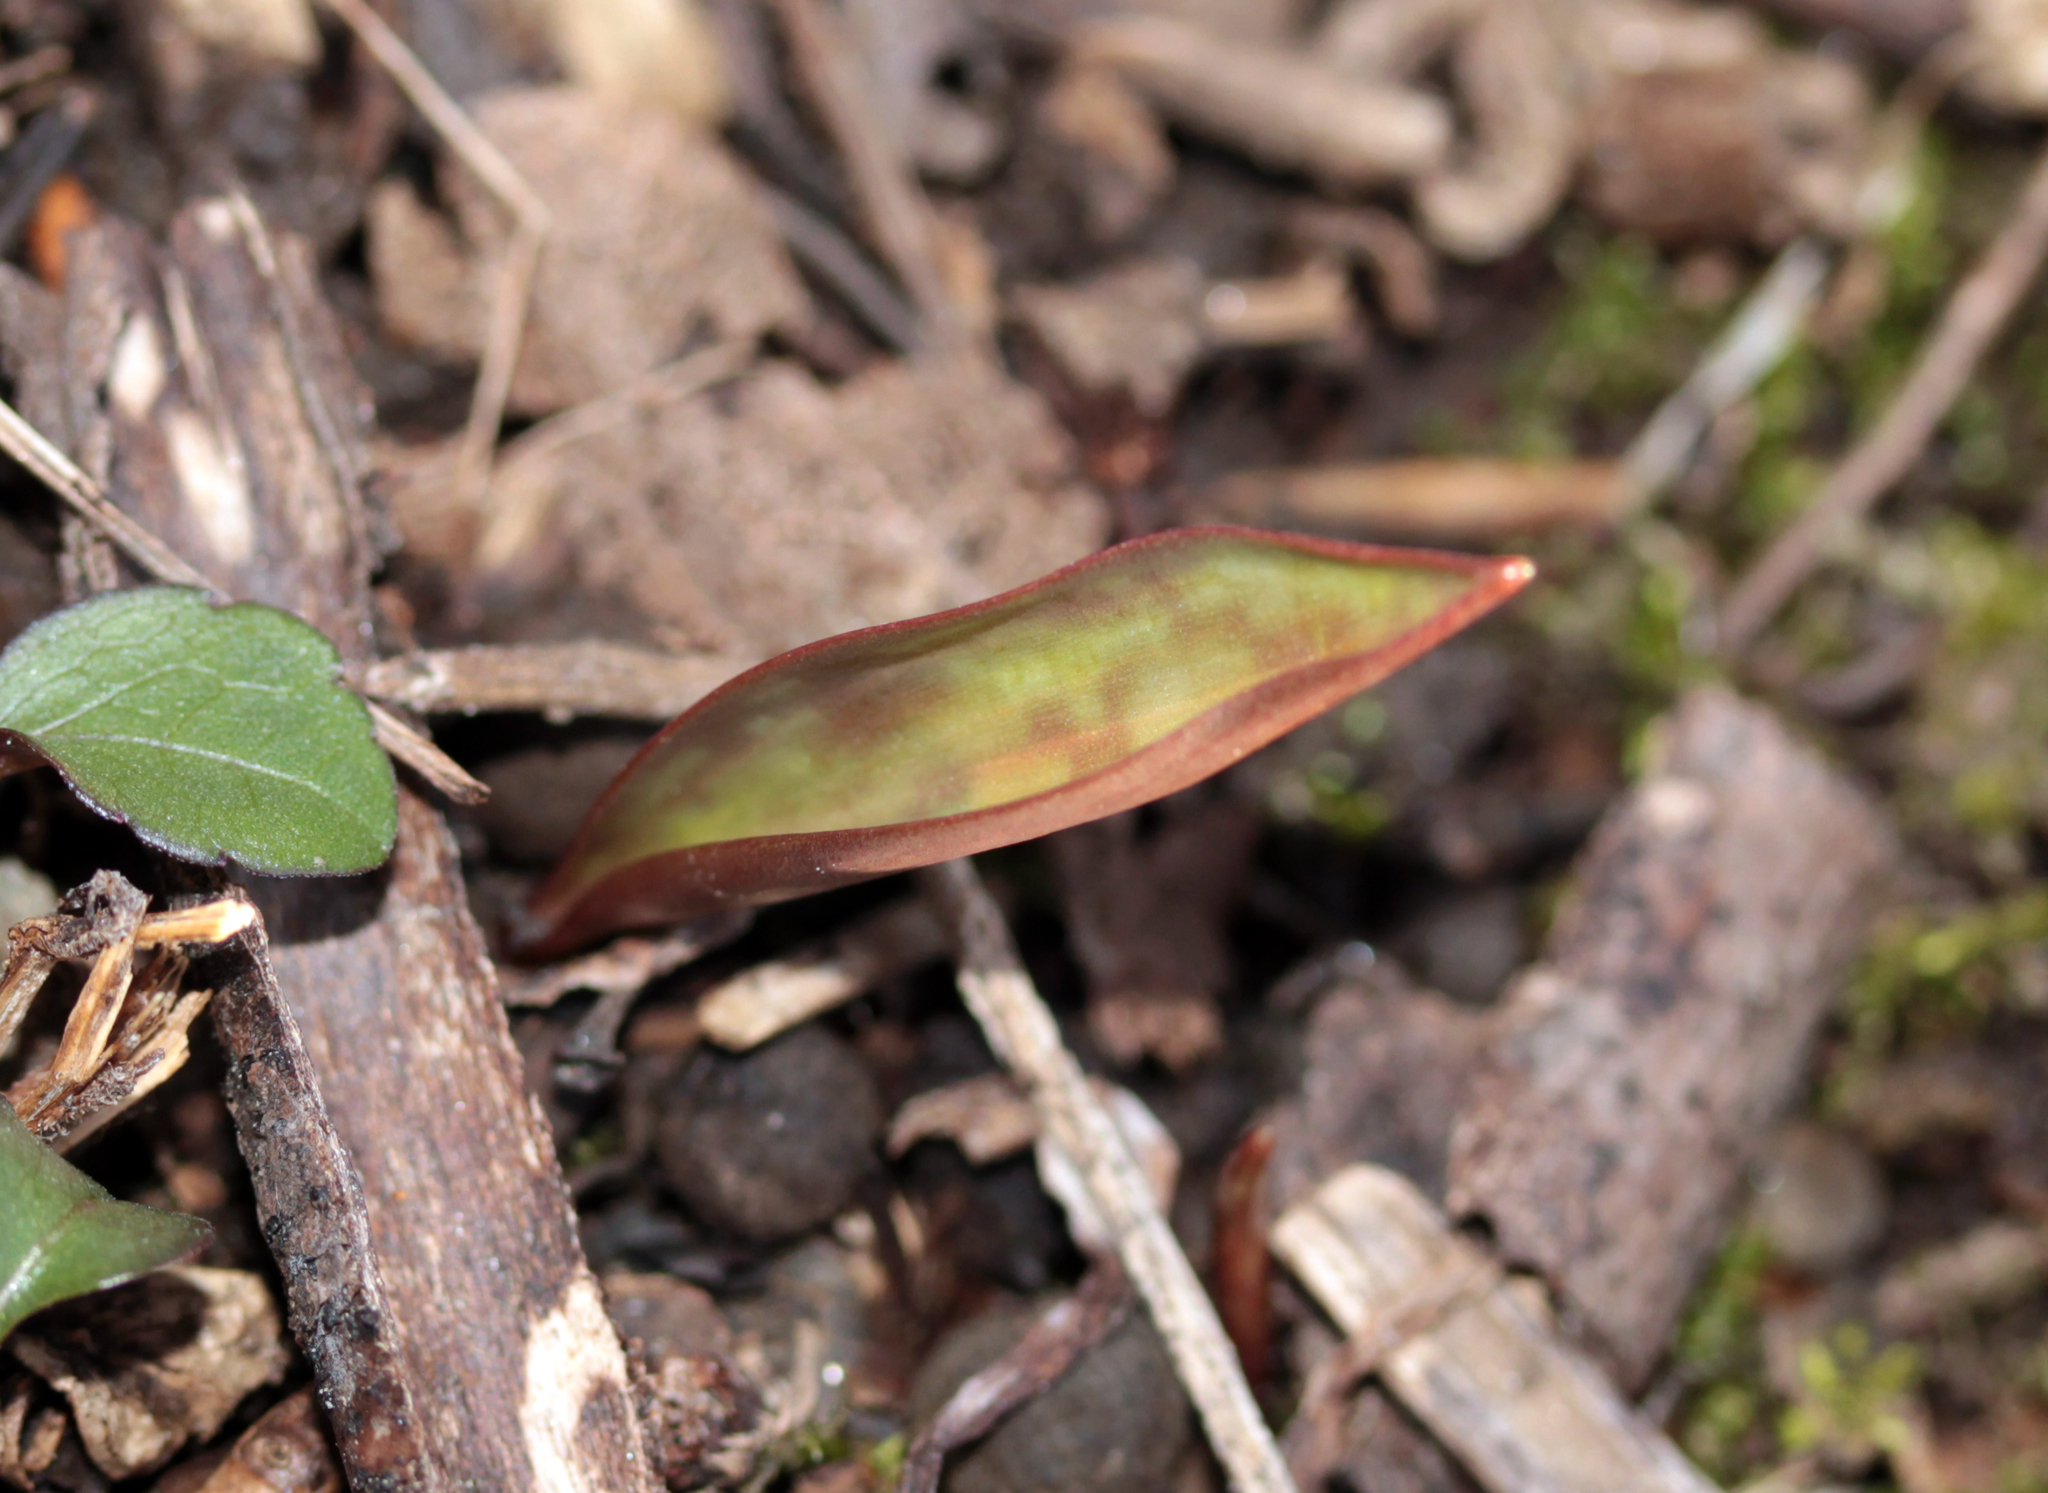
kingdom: Plantae
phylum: Tracheophyta
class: Liliopsida
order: Liliales
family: Liliaceae
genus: Erythronium
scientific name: Erythronium americanum
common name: Yellow adder's-tongue
